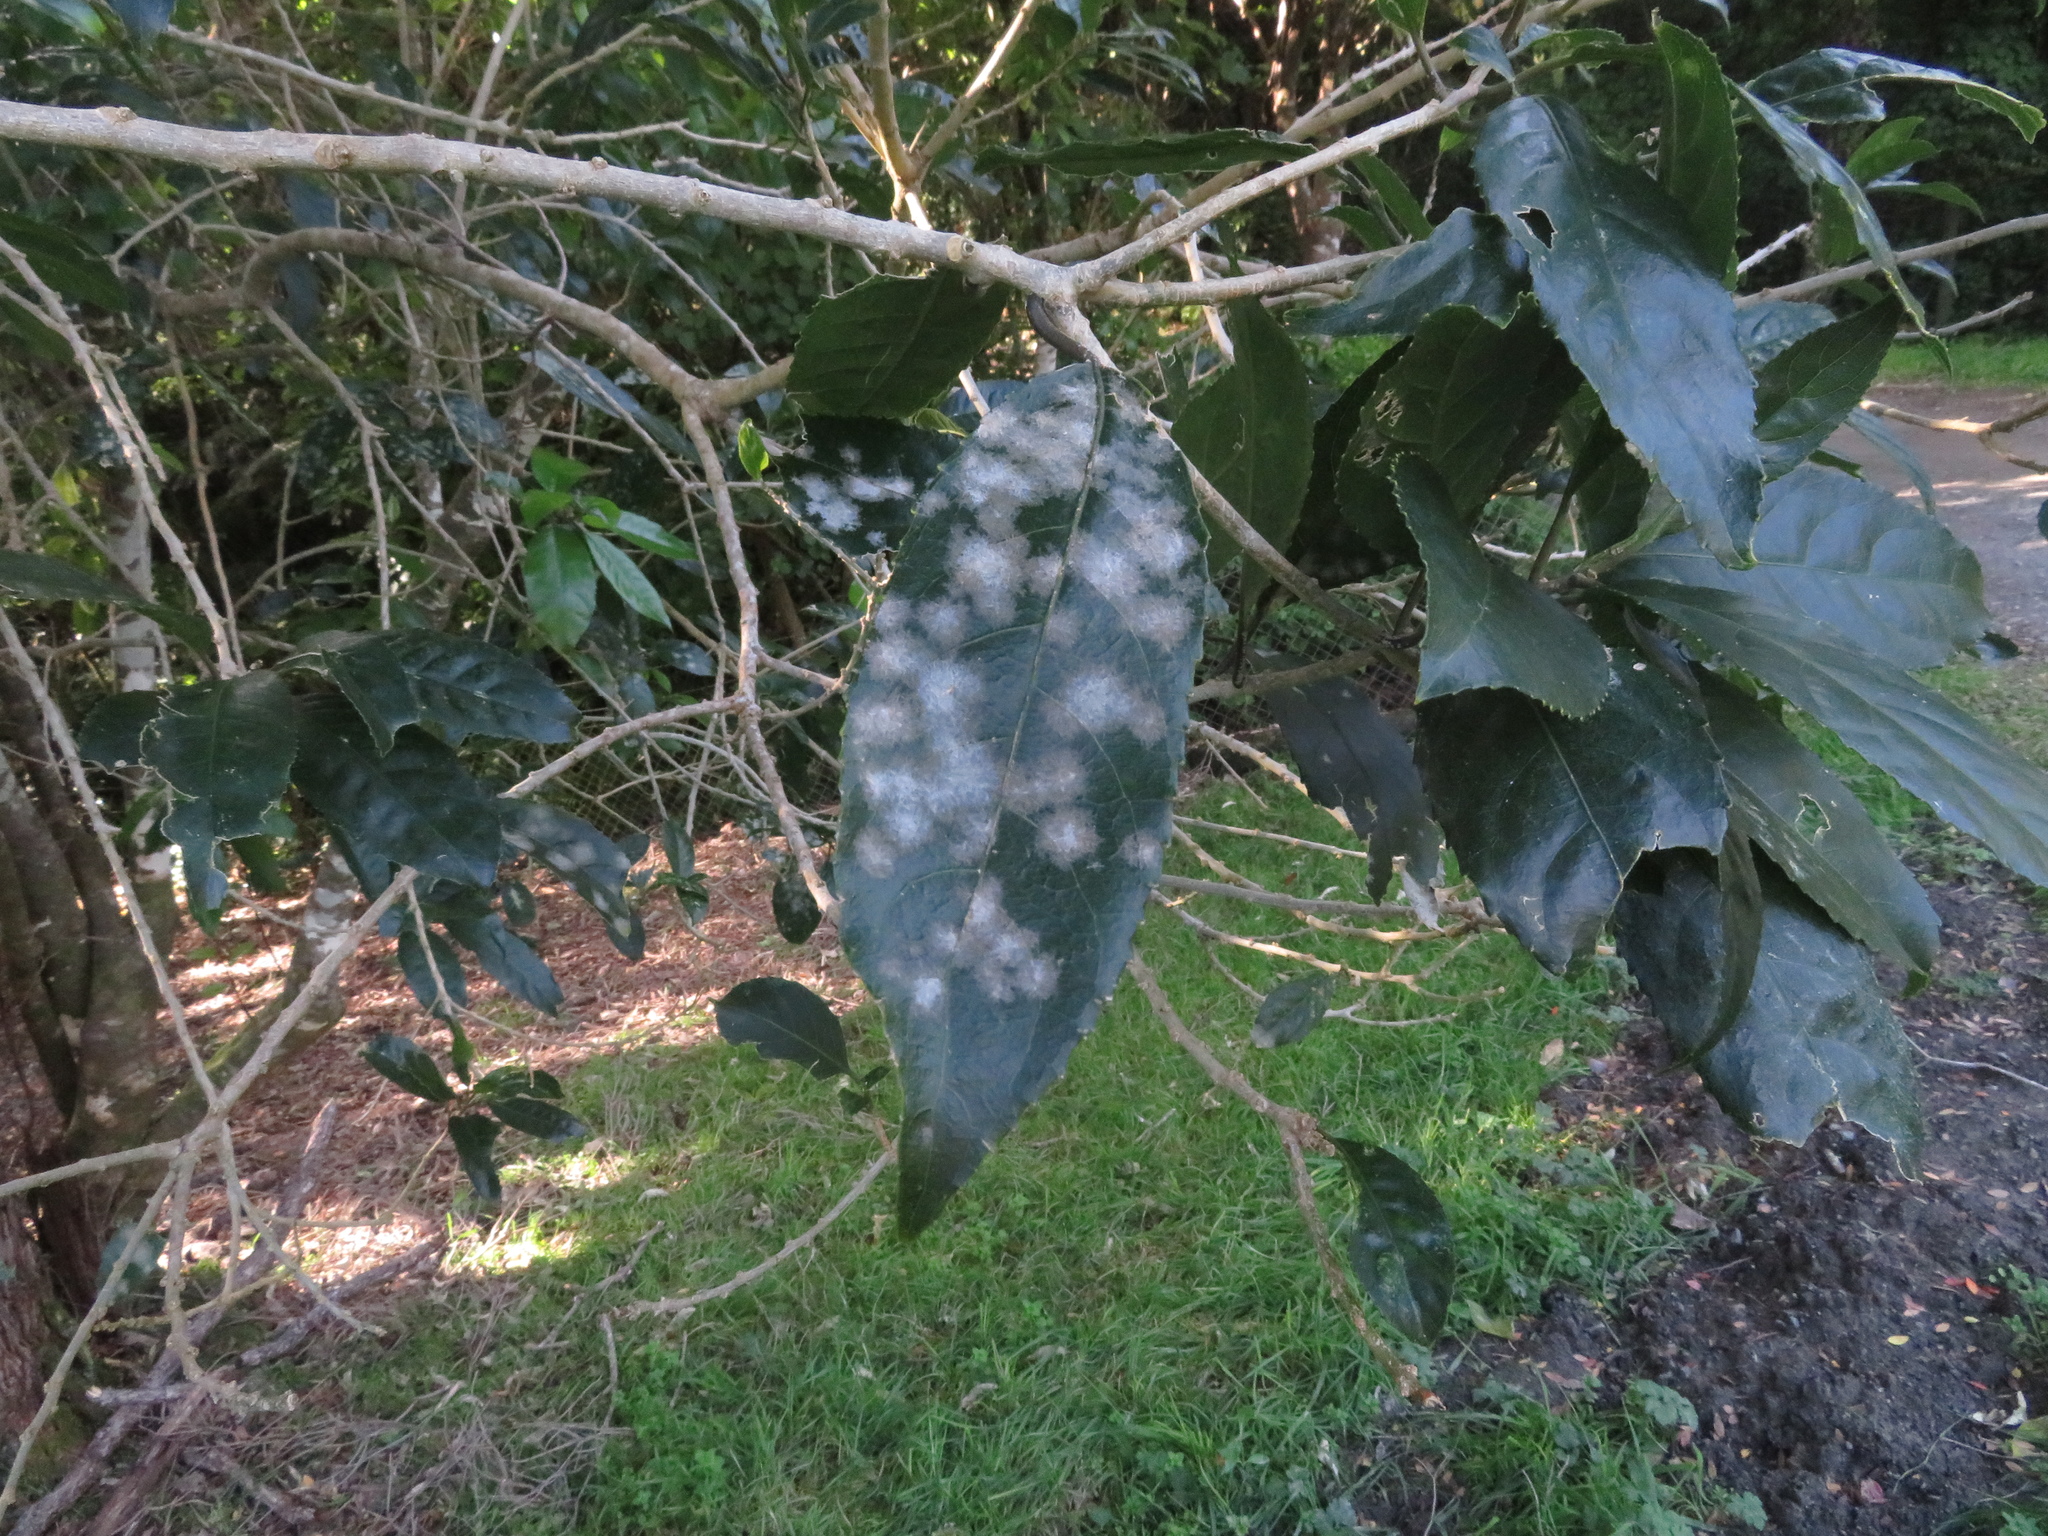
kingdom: Plantae
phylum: Chlorophyta
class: Ulvophyceae
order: Trentepohliales
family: Trentepohliaceae
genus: Cephaleuros
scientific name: Cephaleuros
